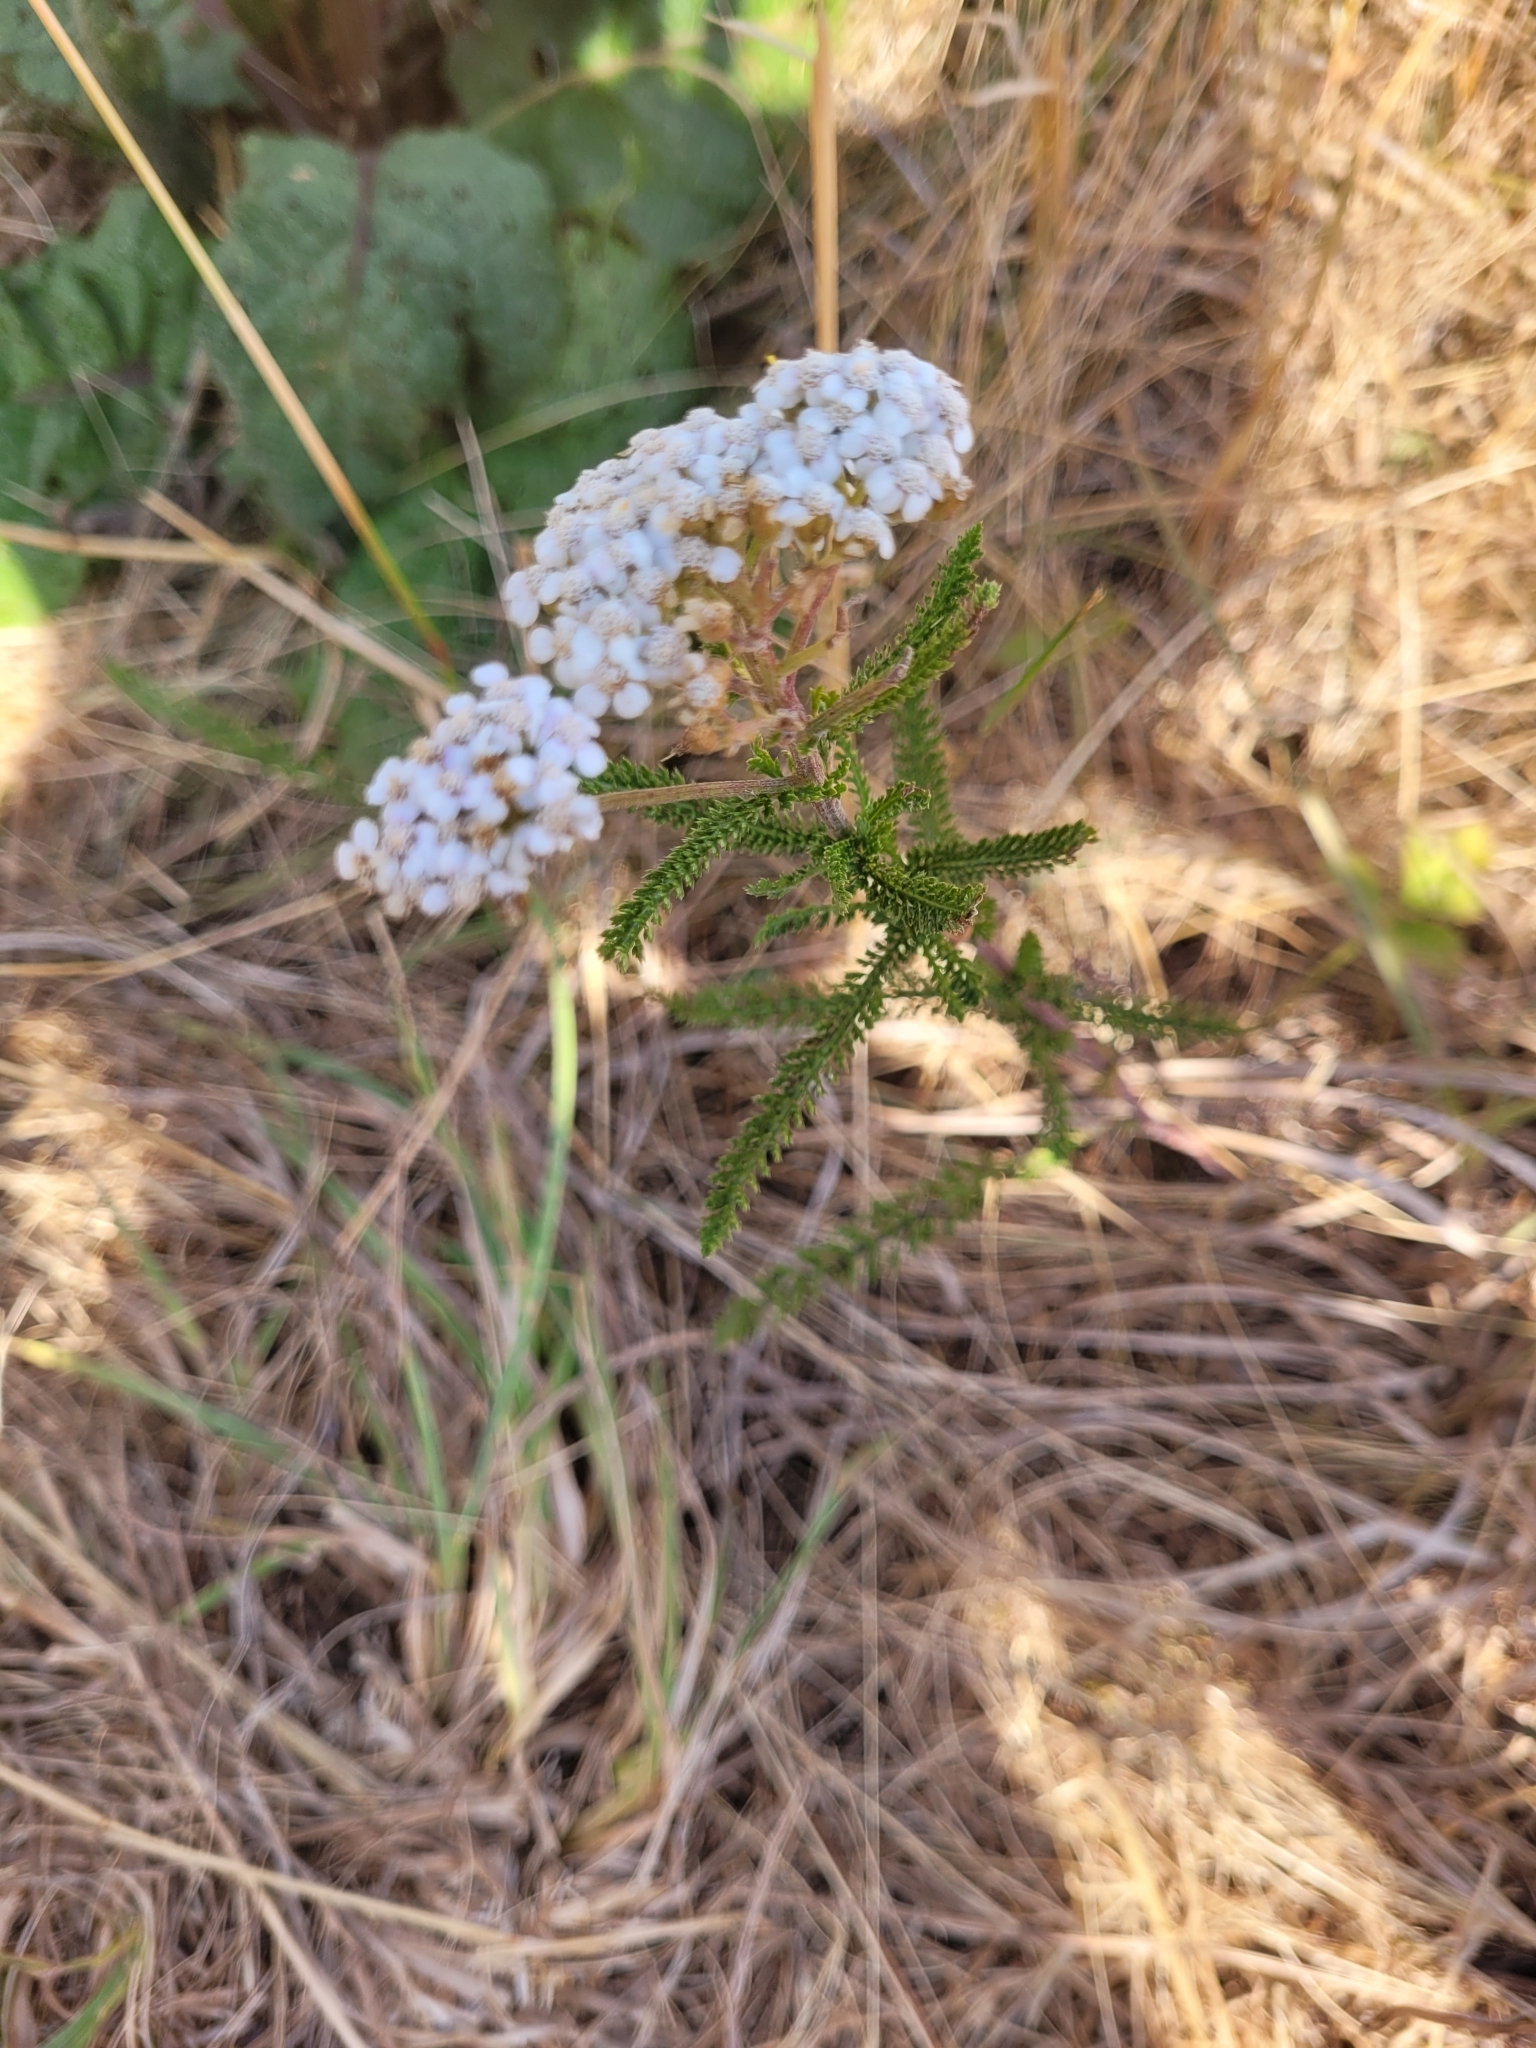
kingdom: Plantae
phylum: Tracheophyta
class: Magnoliopsida
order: Asterales
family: Asteraceae
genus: Achillea
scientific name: Achillea millefolium
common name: Yarrow
